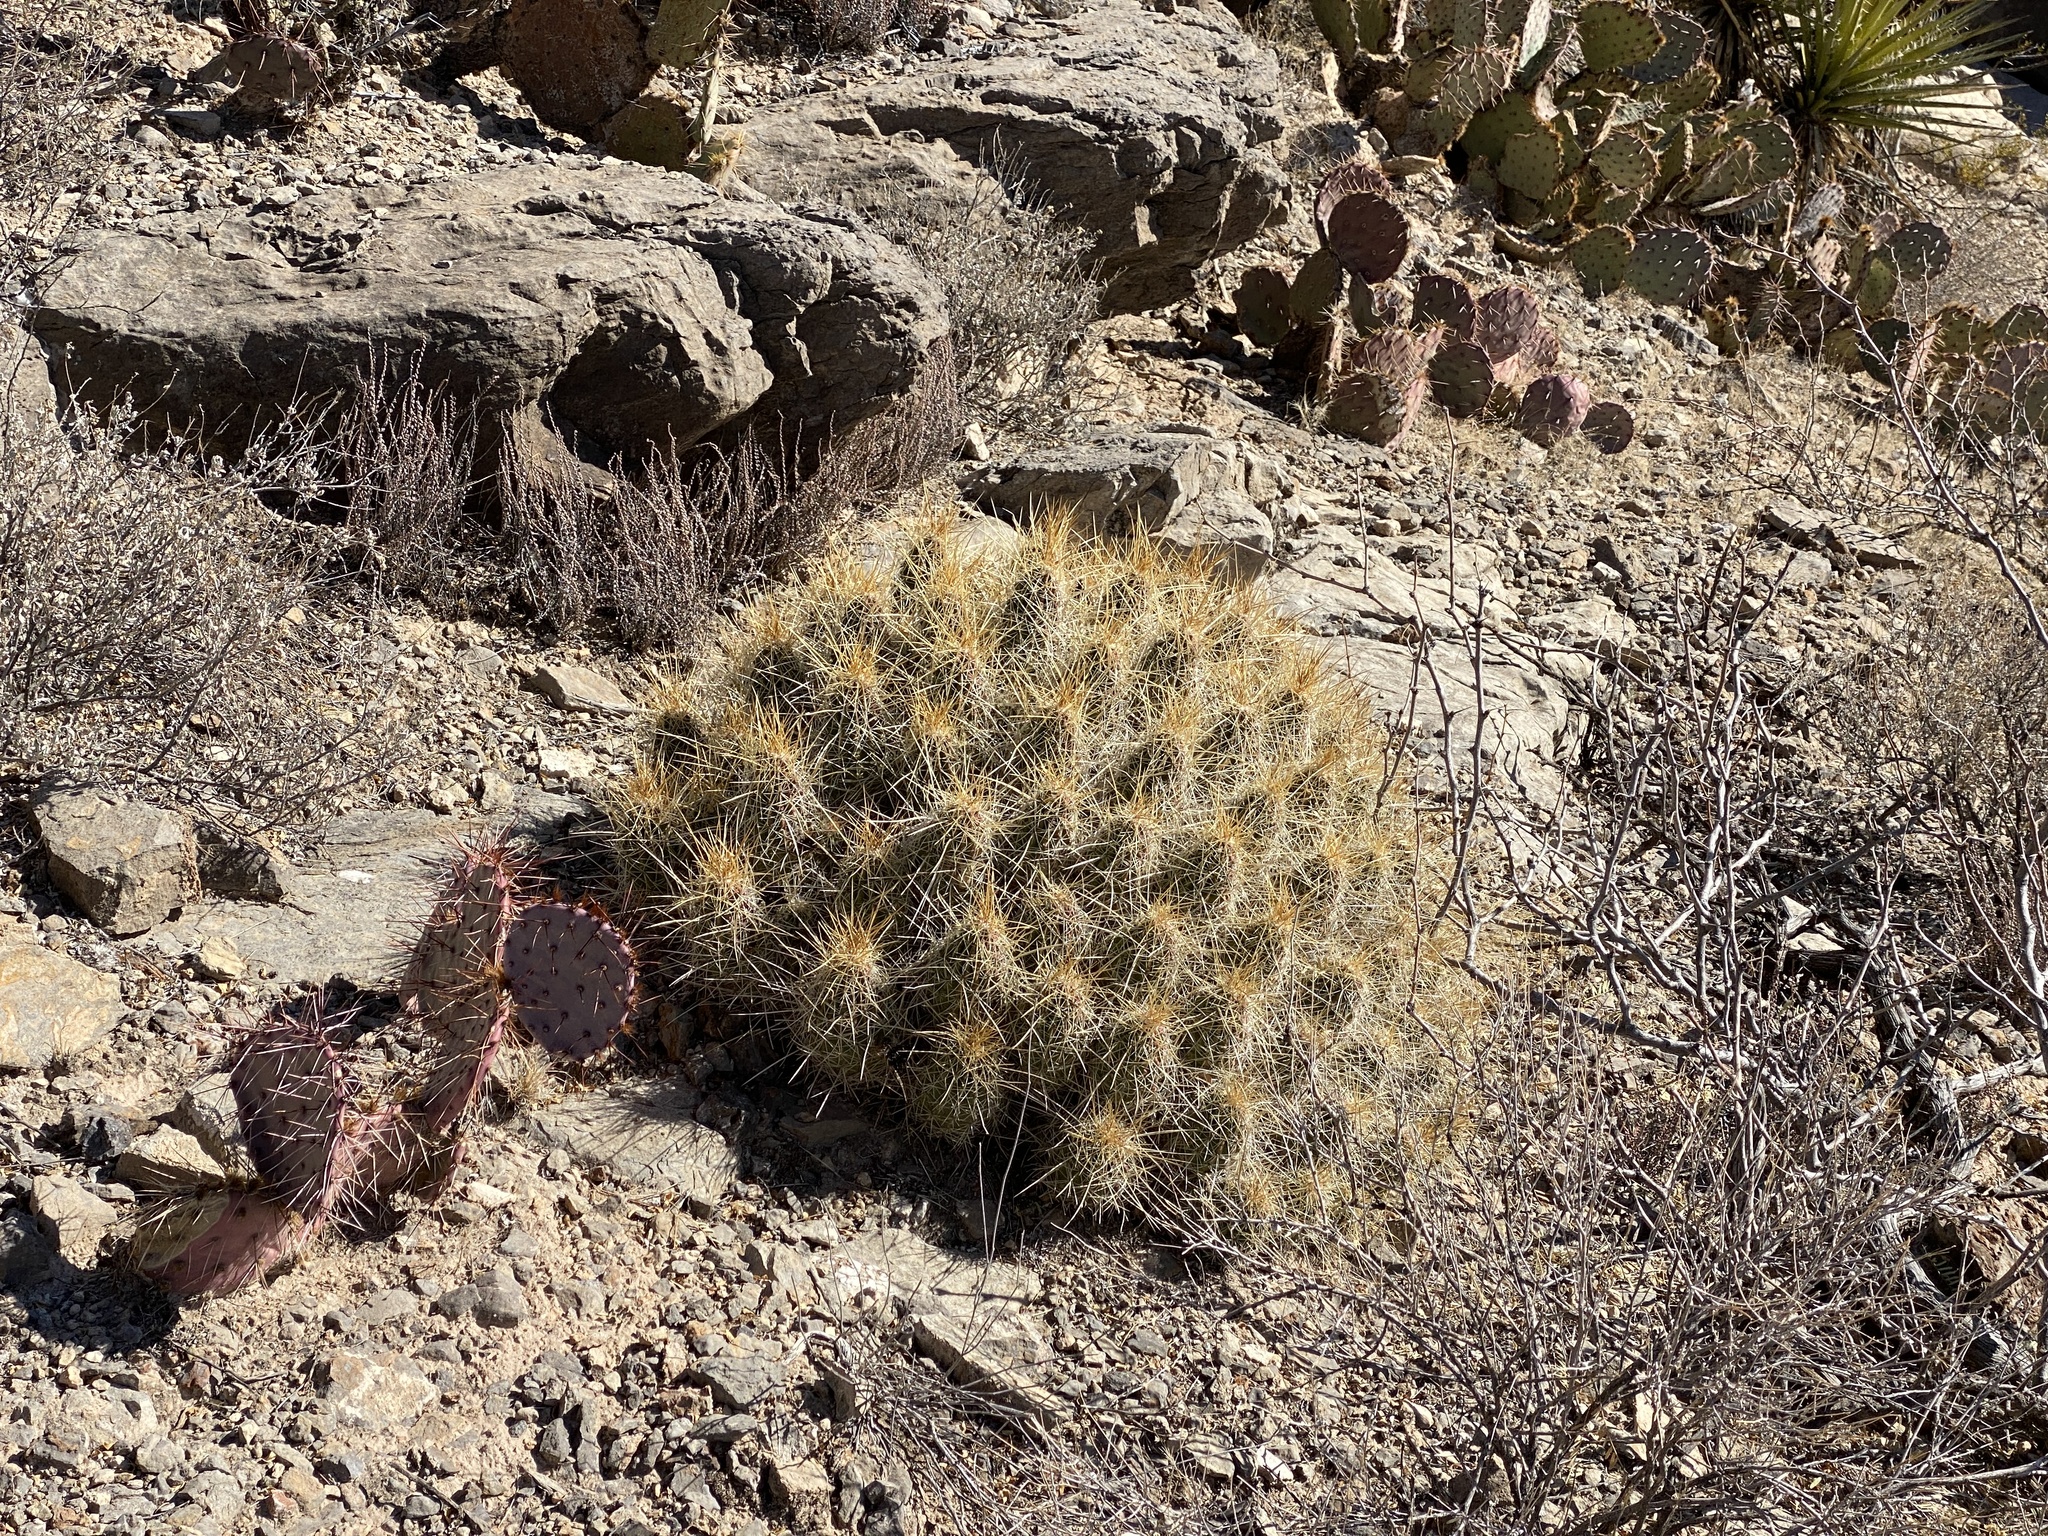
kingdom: Plantae
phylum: Tracheophyta
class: Magnoliopsida
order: Caryophyllales
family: Cactaceae
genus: Echinocereus
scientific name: Echinocereus stramineus
